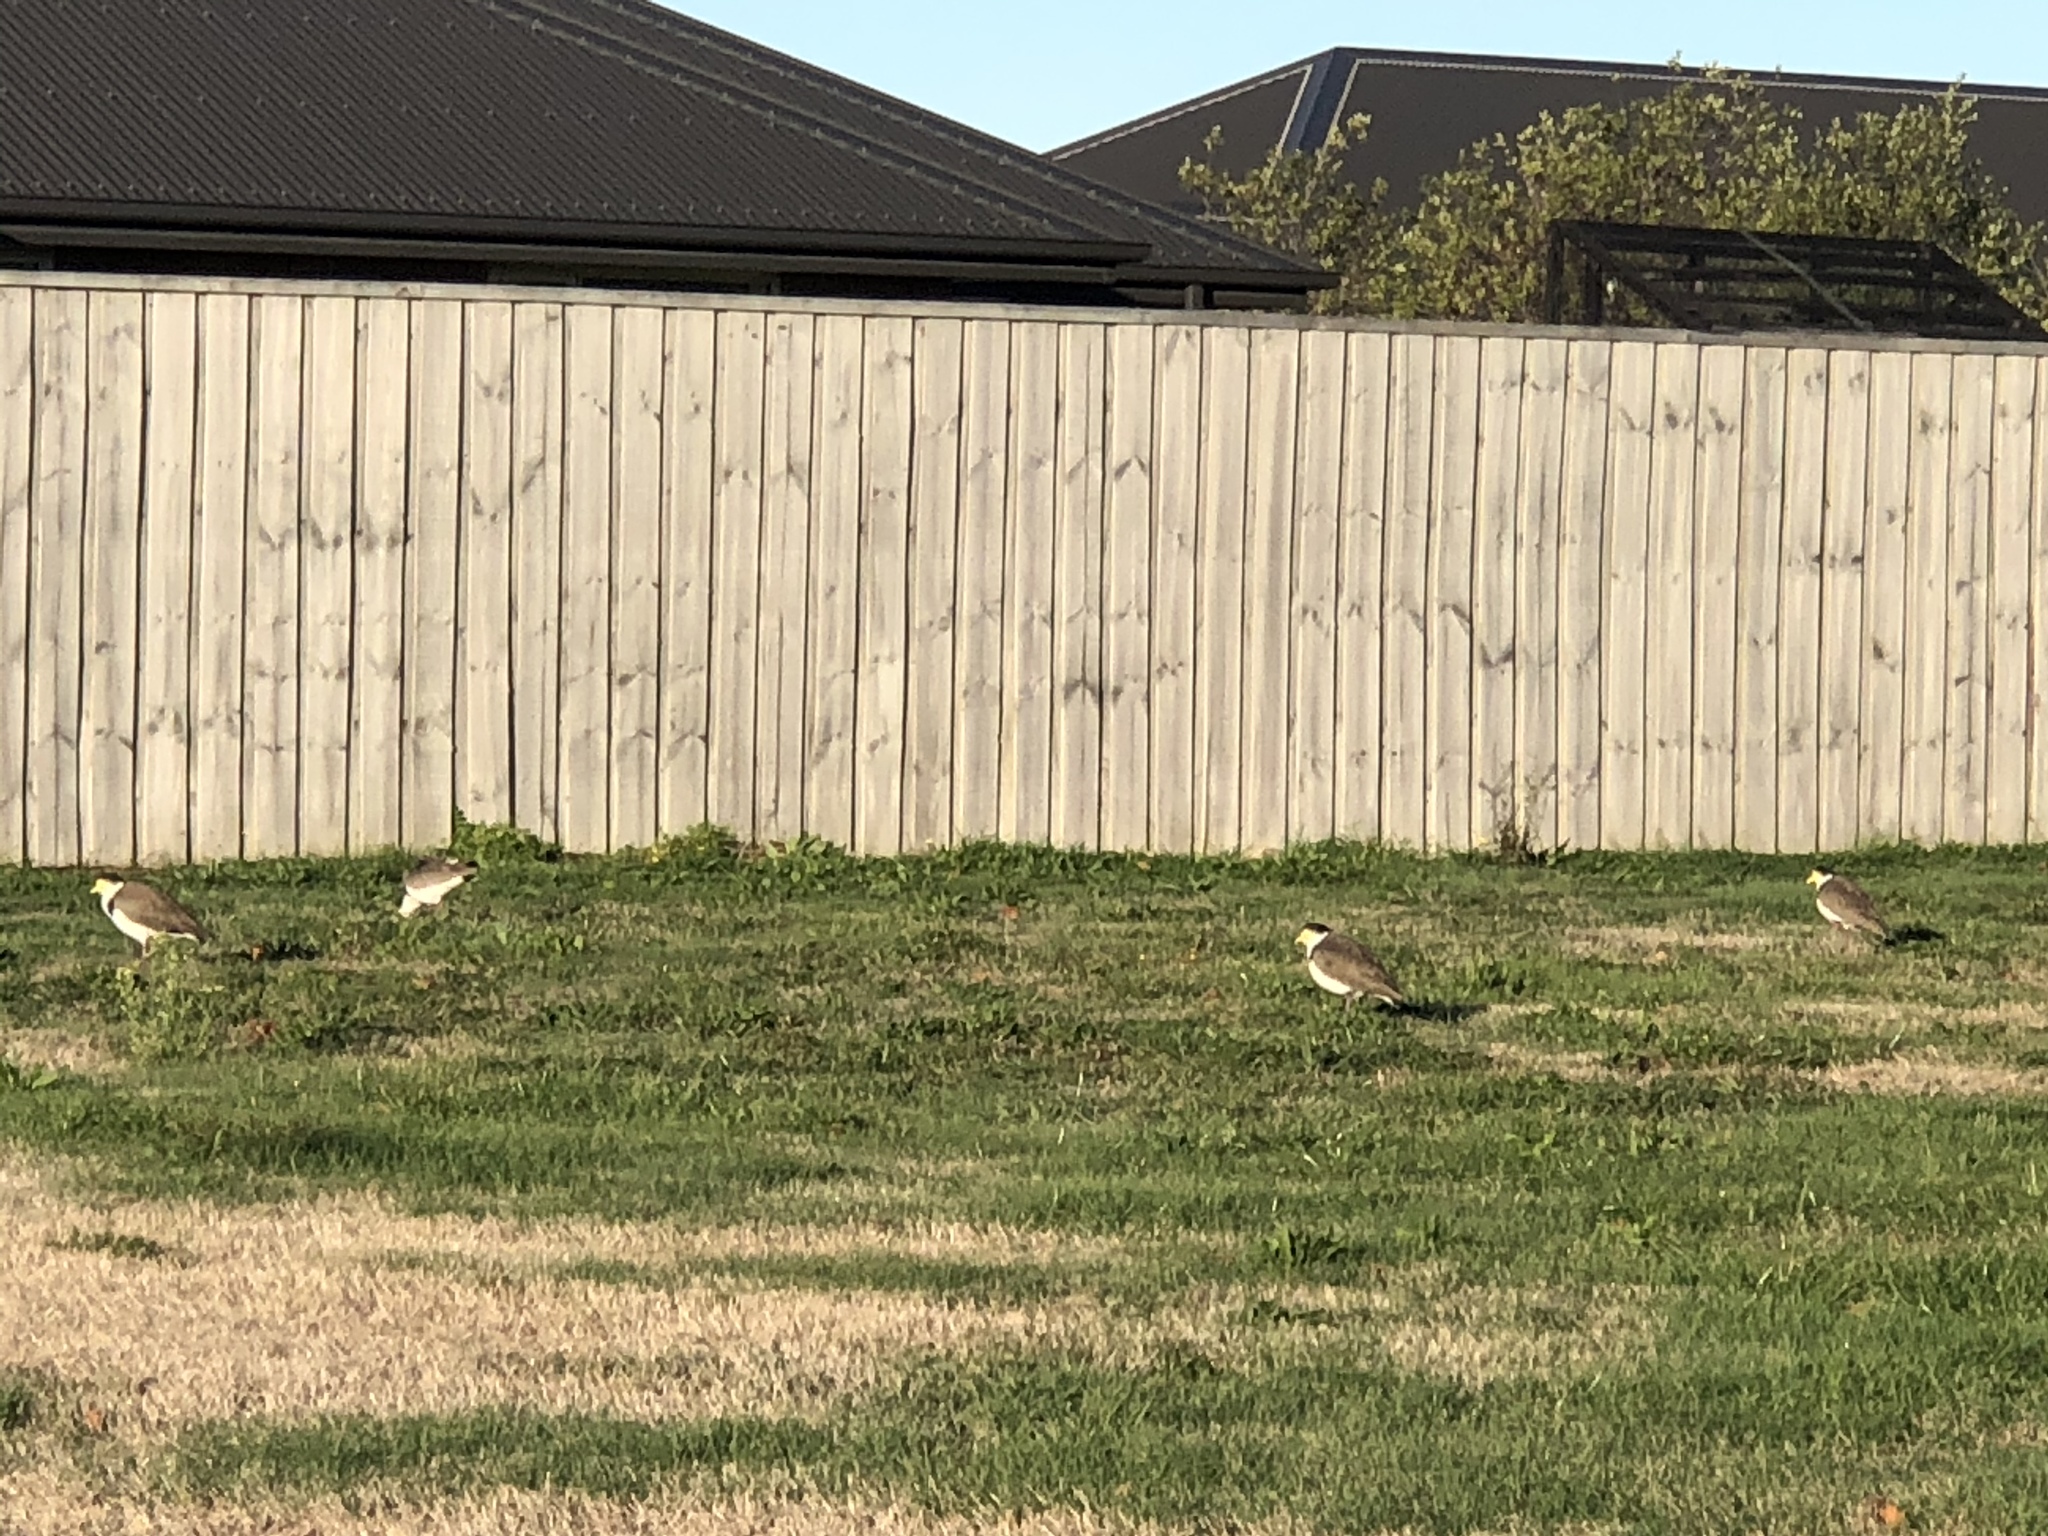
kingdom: Animalia
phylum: Chordata
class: Aves
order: Charadriiformes
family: Charadriidae
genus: Vanellus
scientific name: Vanellus miles
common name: Masked lapwing
